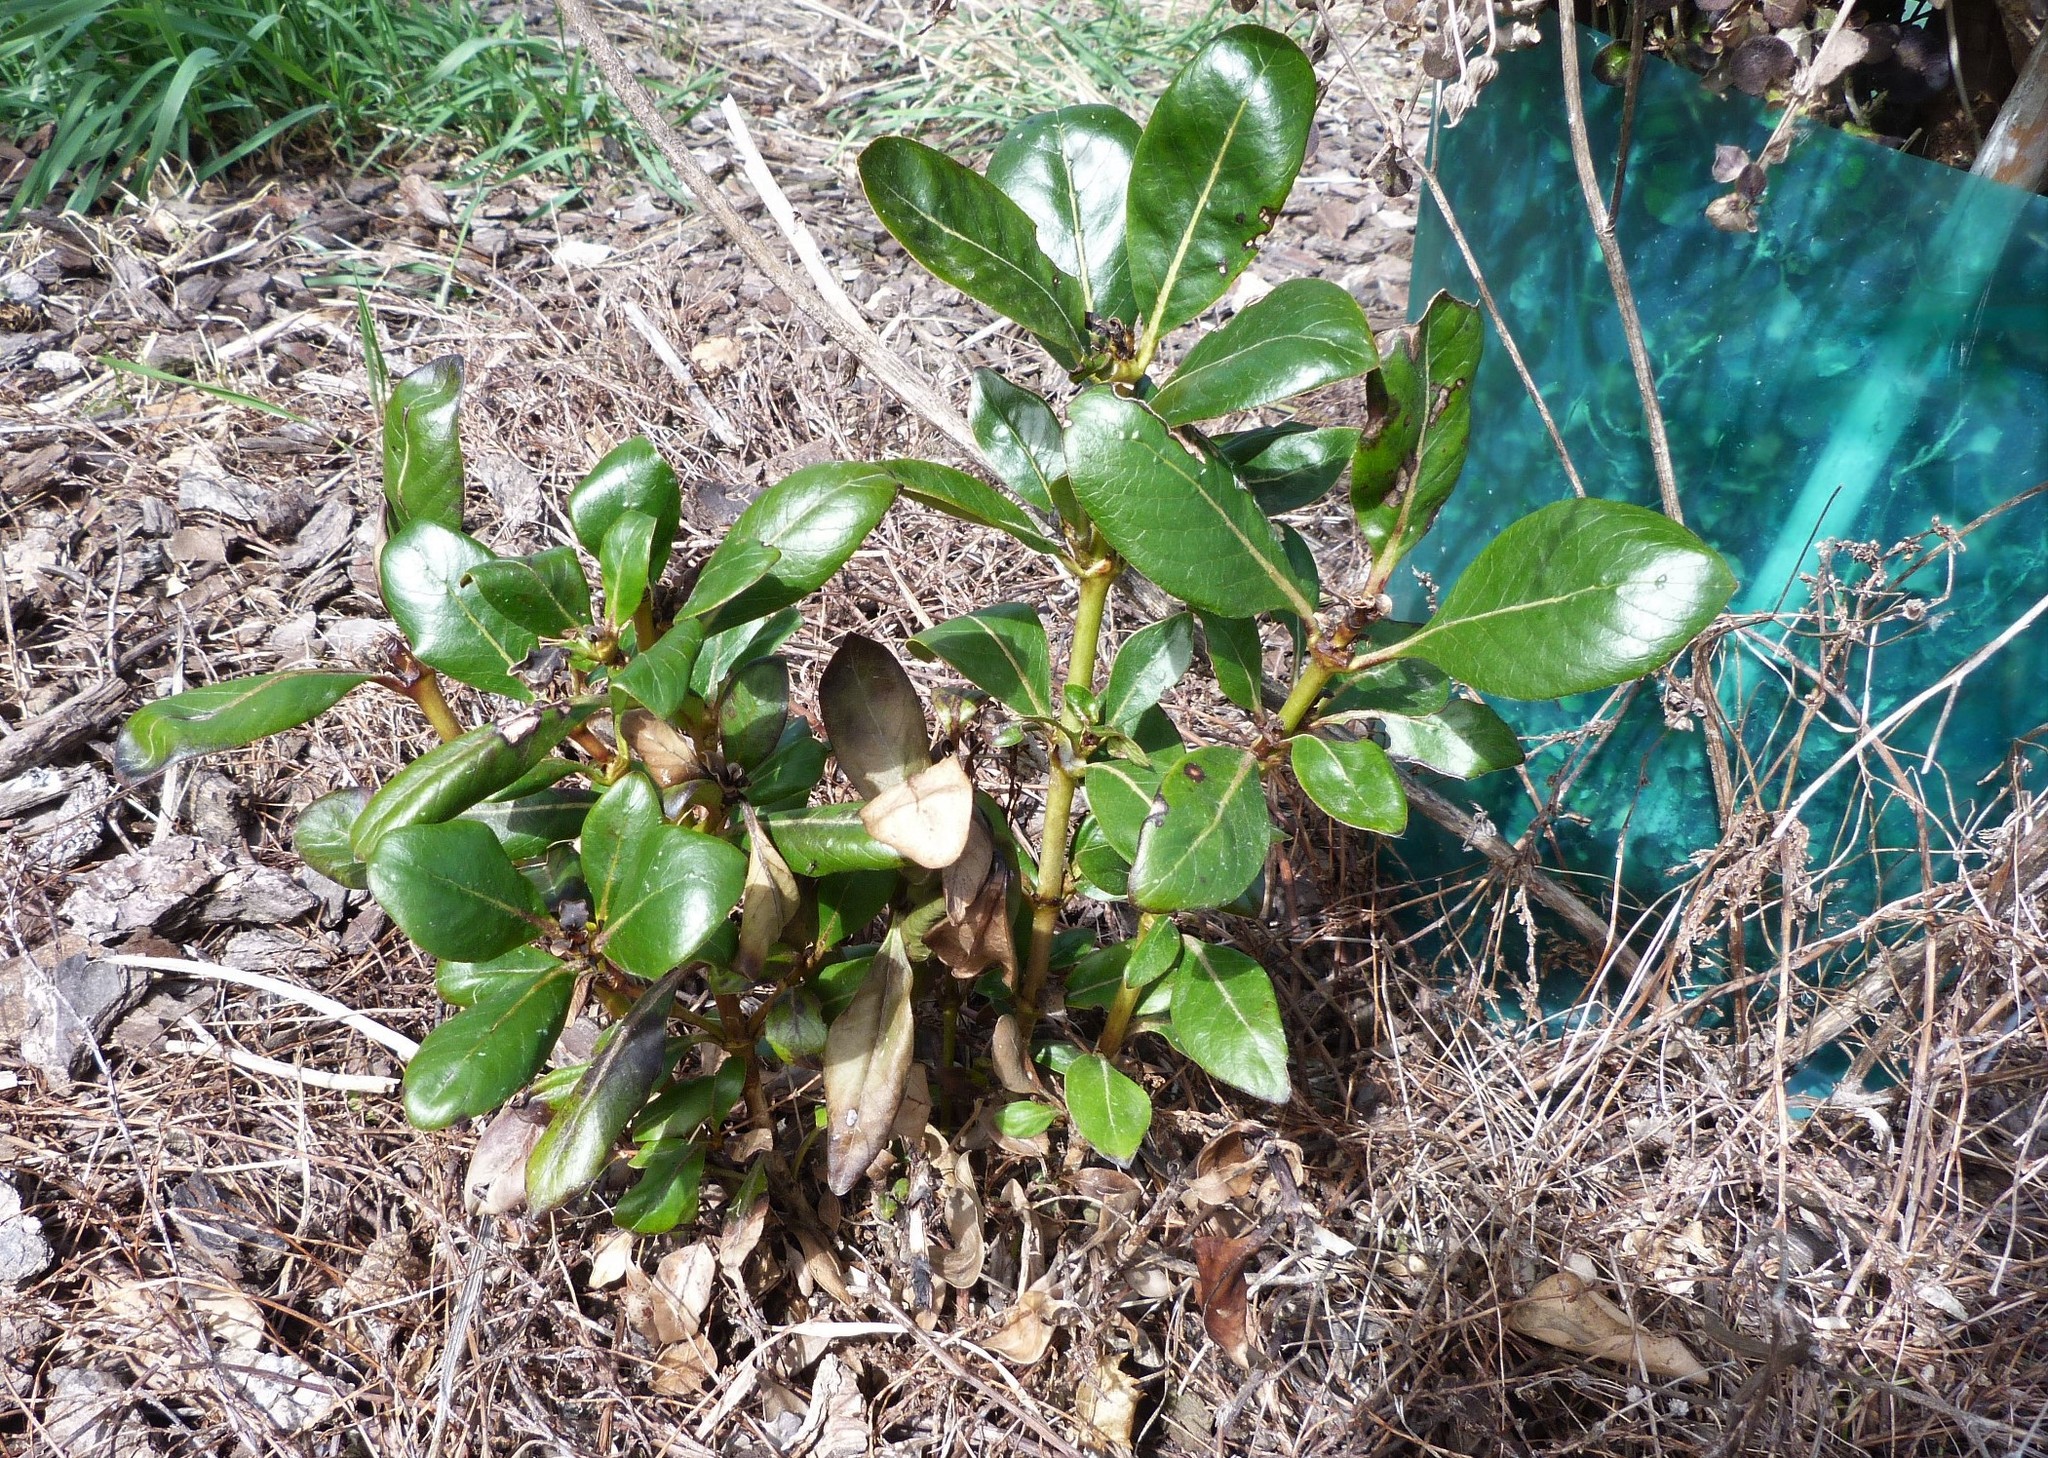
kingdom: Plantae
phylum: Tracheophyta
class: Magnoliopsida
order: Gentianales
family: Rubiaceae
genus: Coprosma
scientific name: Coprosma robusta
